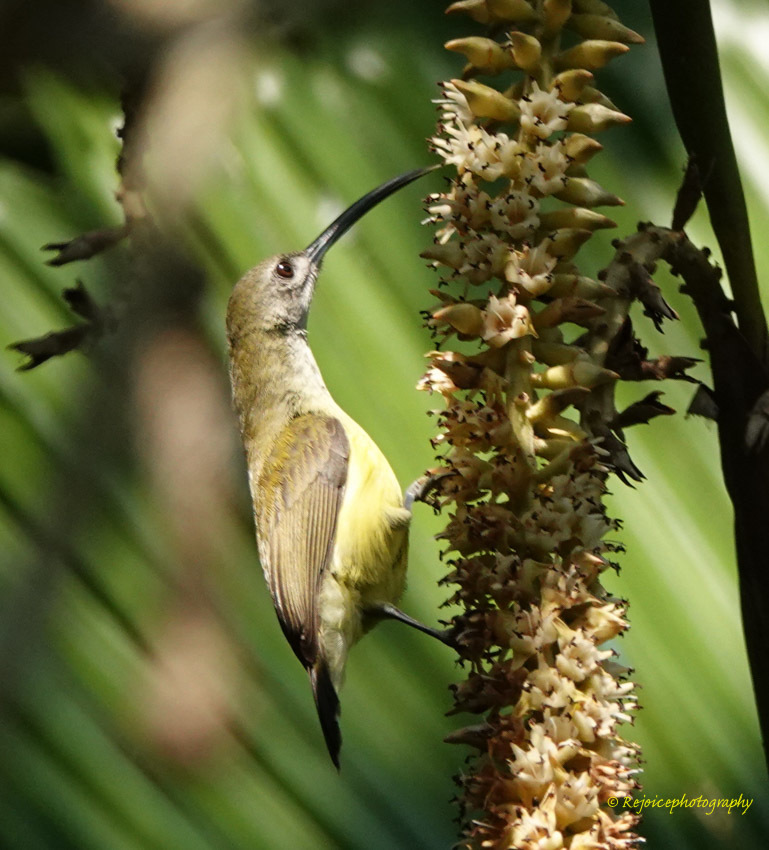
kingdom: Animalia
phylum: Chordata
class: Aves
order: Passeriformes
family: Nectariniidae
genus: Arachnothera
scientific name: Arachnothera longirostra
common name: Little spiderhunter
